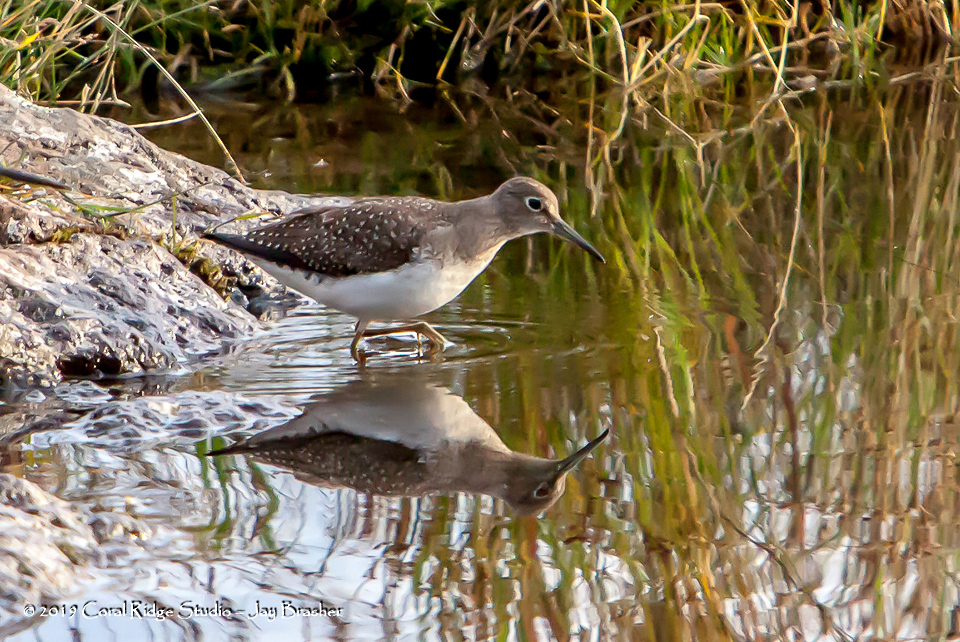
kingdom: Animalia
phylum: Chordata
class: Aves
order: Charadriiformes
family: Scolopacidae
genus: Tringa
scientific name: Tringa solitaria
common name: Solitary sandpiper
